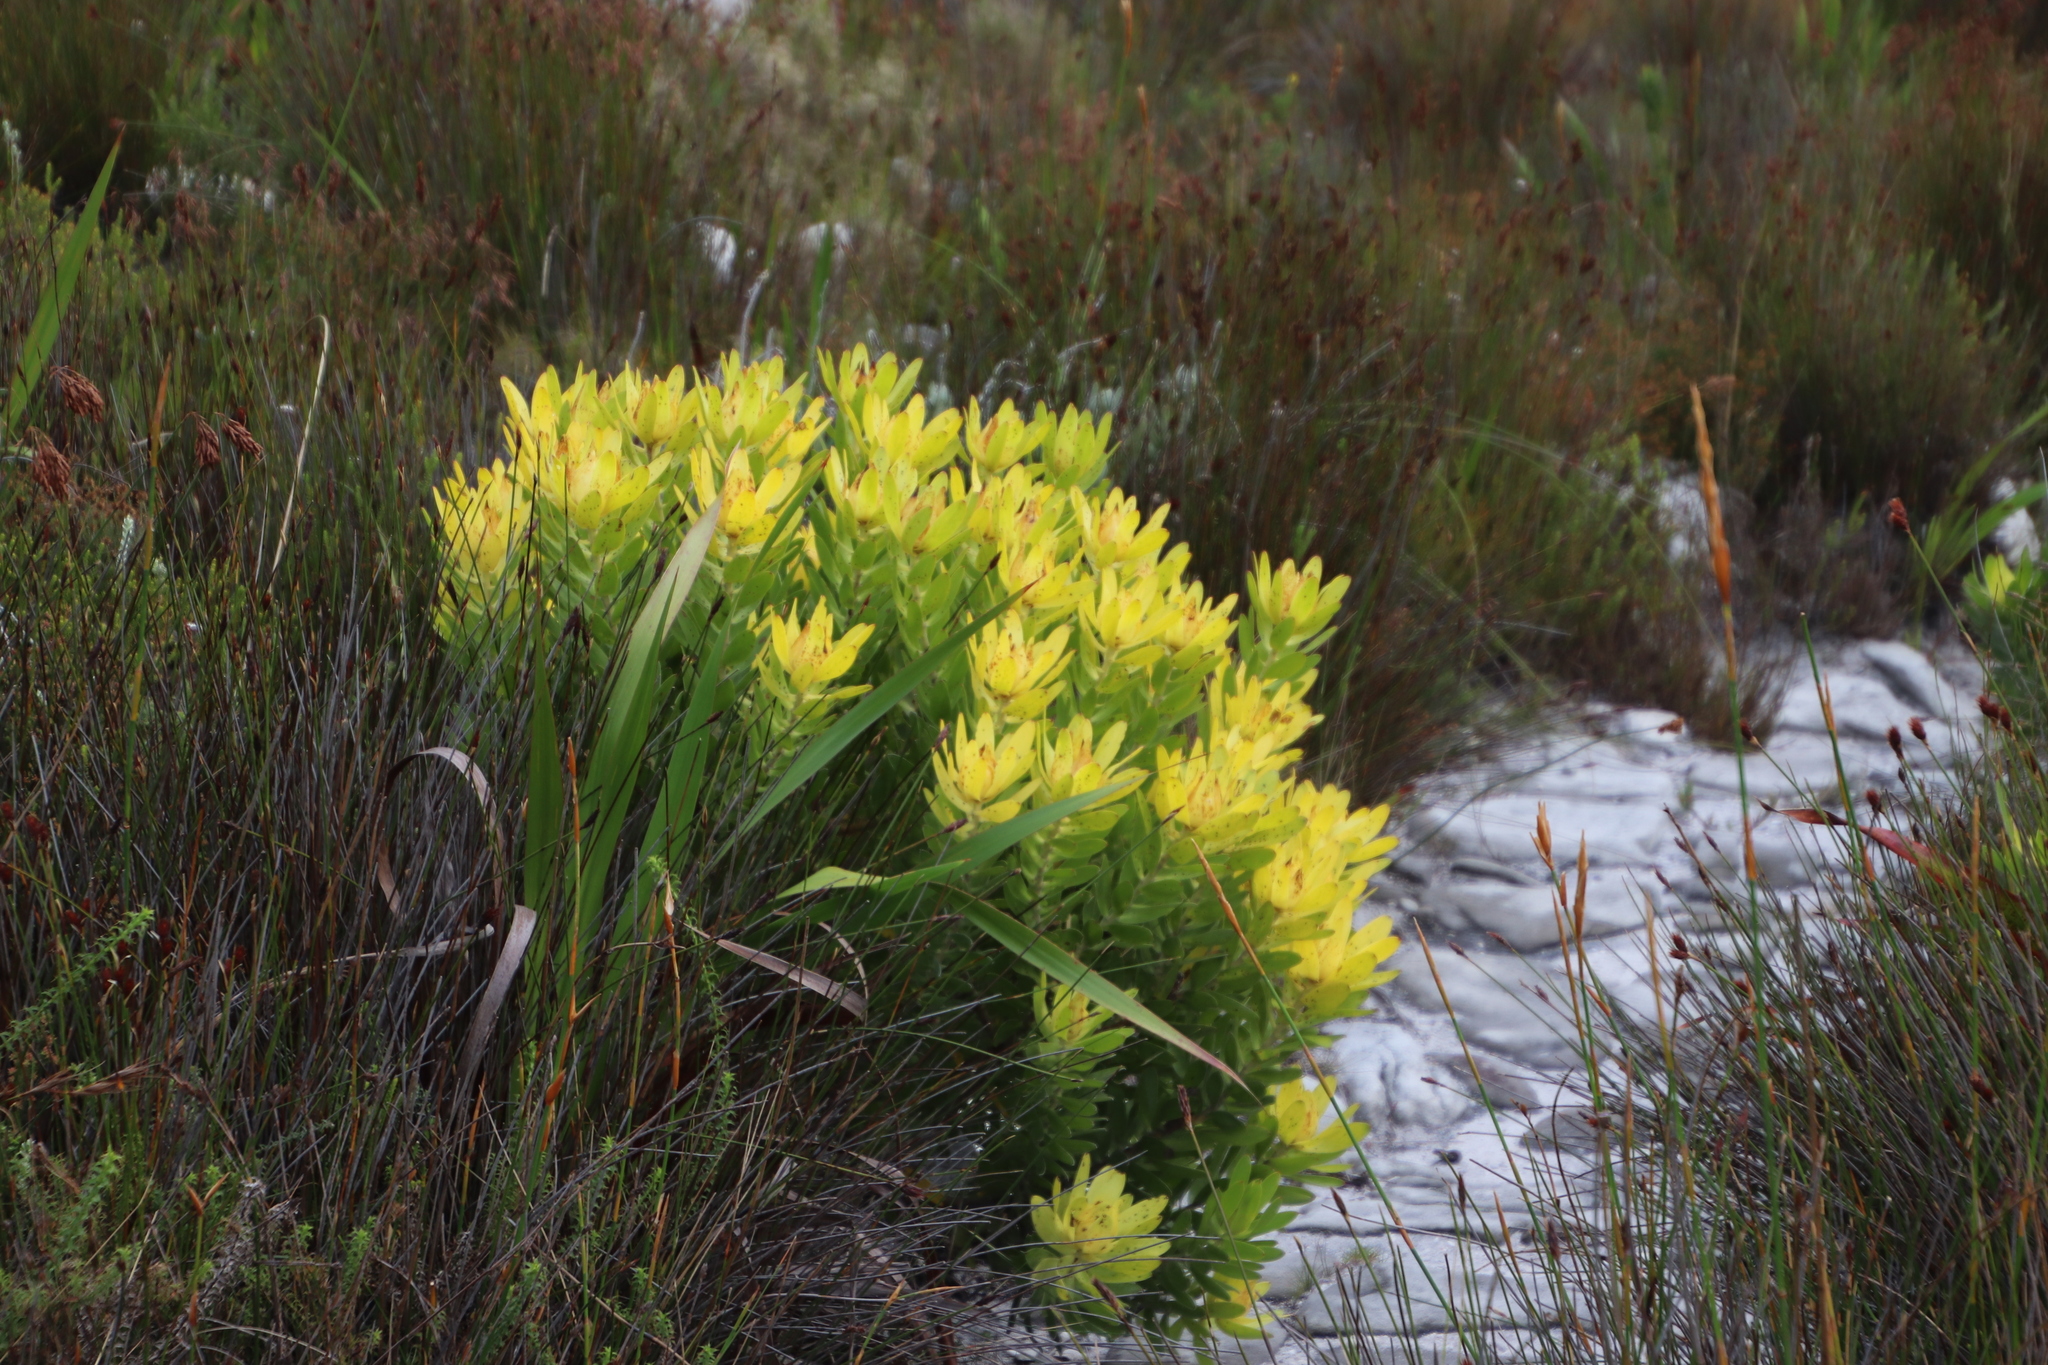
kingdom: Plantae
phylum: Tracheophyta
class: Magnoliopsida
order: Proteales
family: Proteaceae
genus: Leucadendron
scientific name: Leucadendron laureolum
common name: Golden sunshinebush
